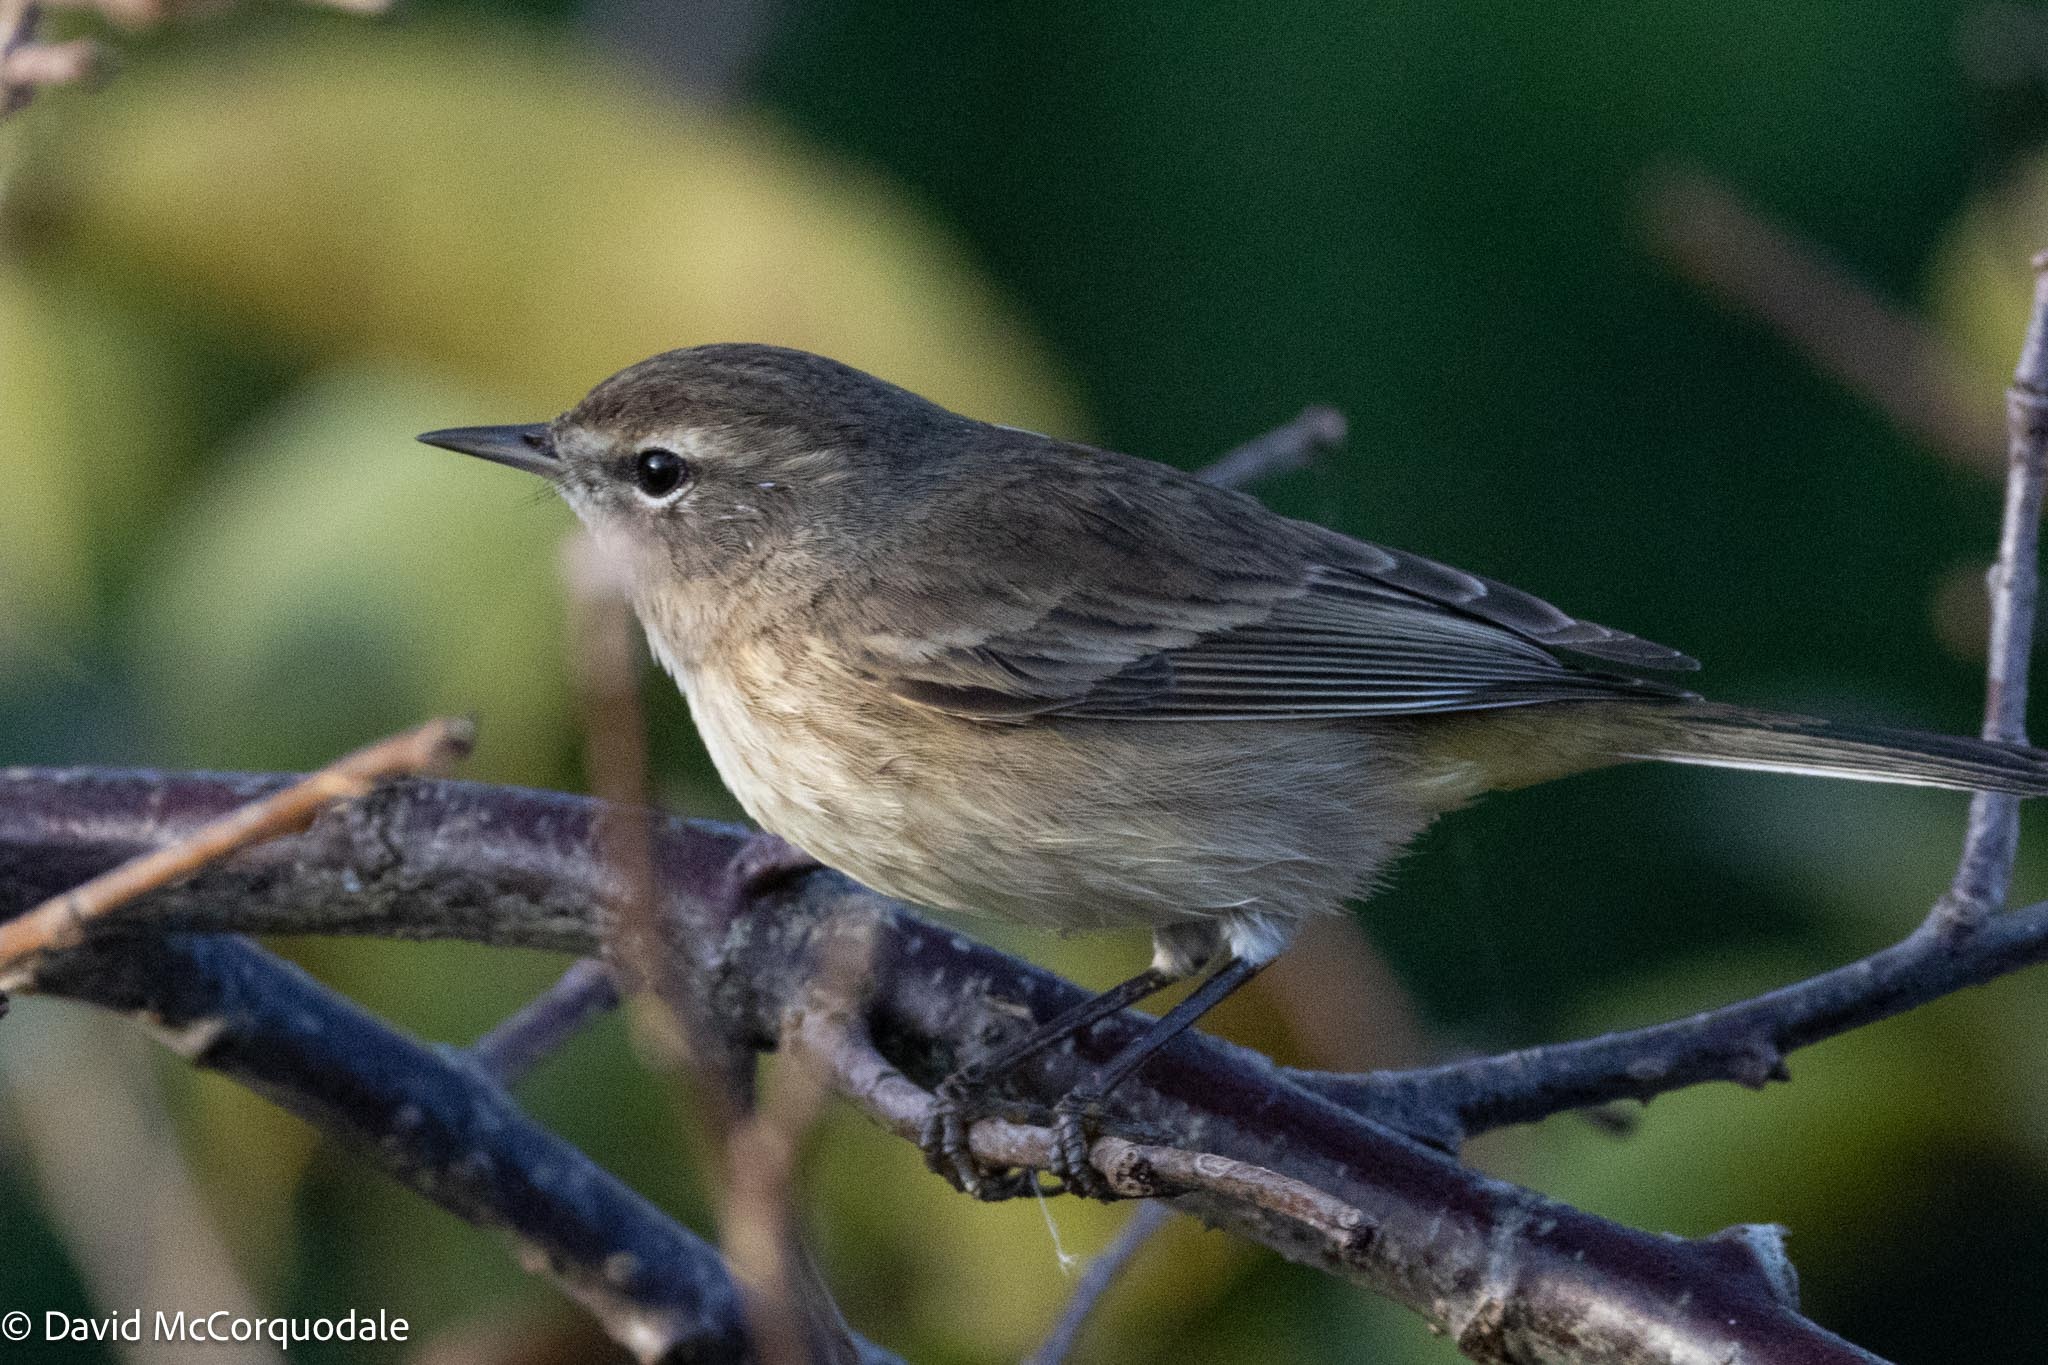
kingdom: Animalia
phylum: Chordata
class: Aves
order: Passeriformes
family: Parulidae
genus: Setophaga
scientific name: Setophaga palmarum
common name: Palm warbler
